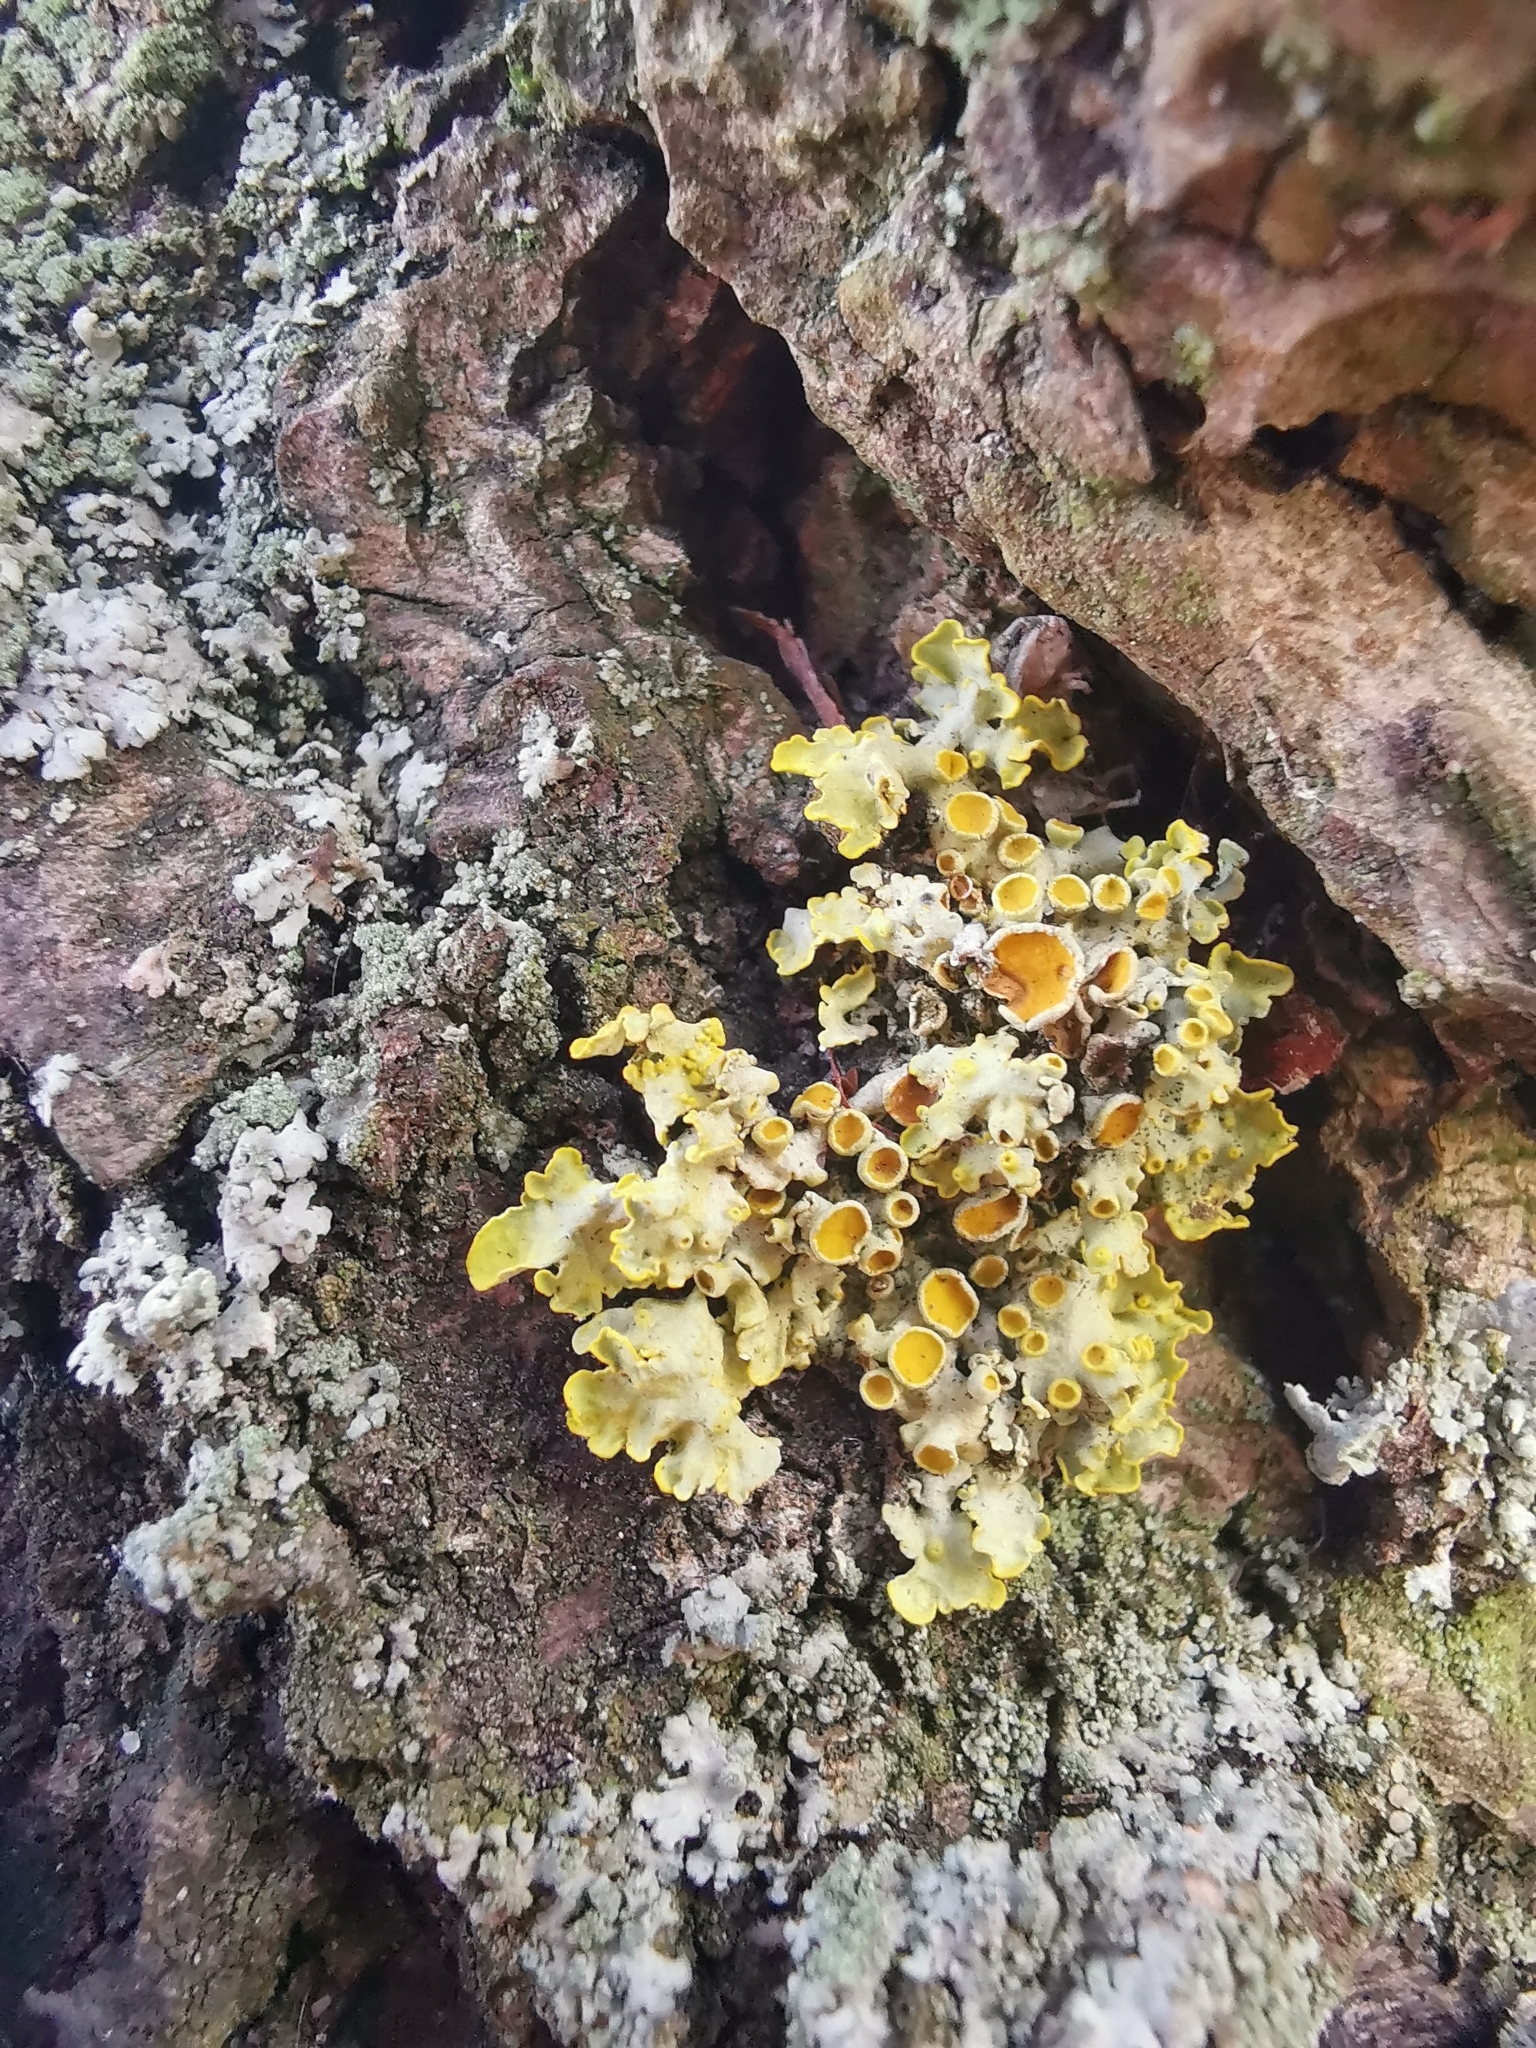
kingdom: Fungi
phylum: Ascomycota
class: Lecanoromycetes
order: Teloschistales
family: Teloschistaceae
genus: Xanthoria
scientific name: Xanthoria parietina
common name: Common orange lichen
